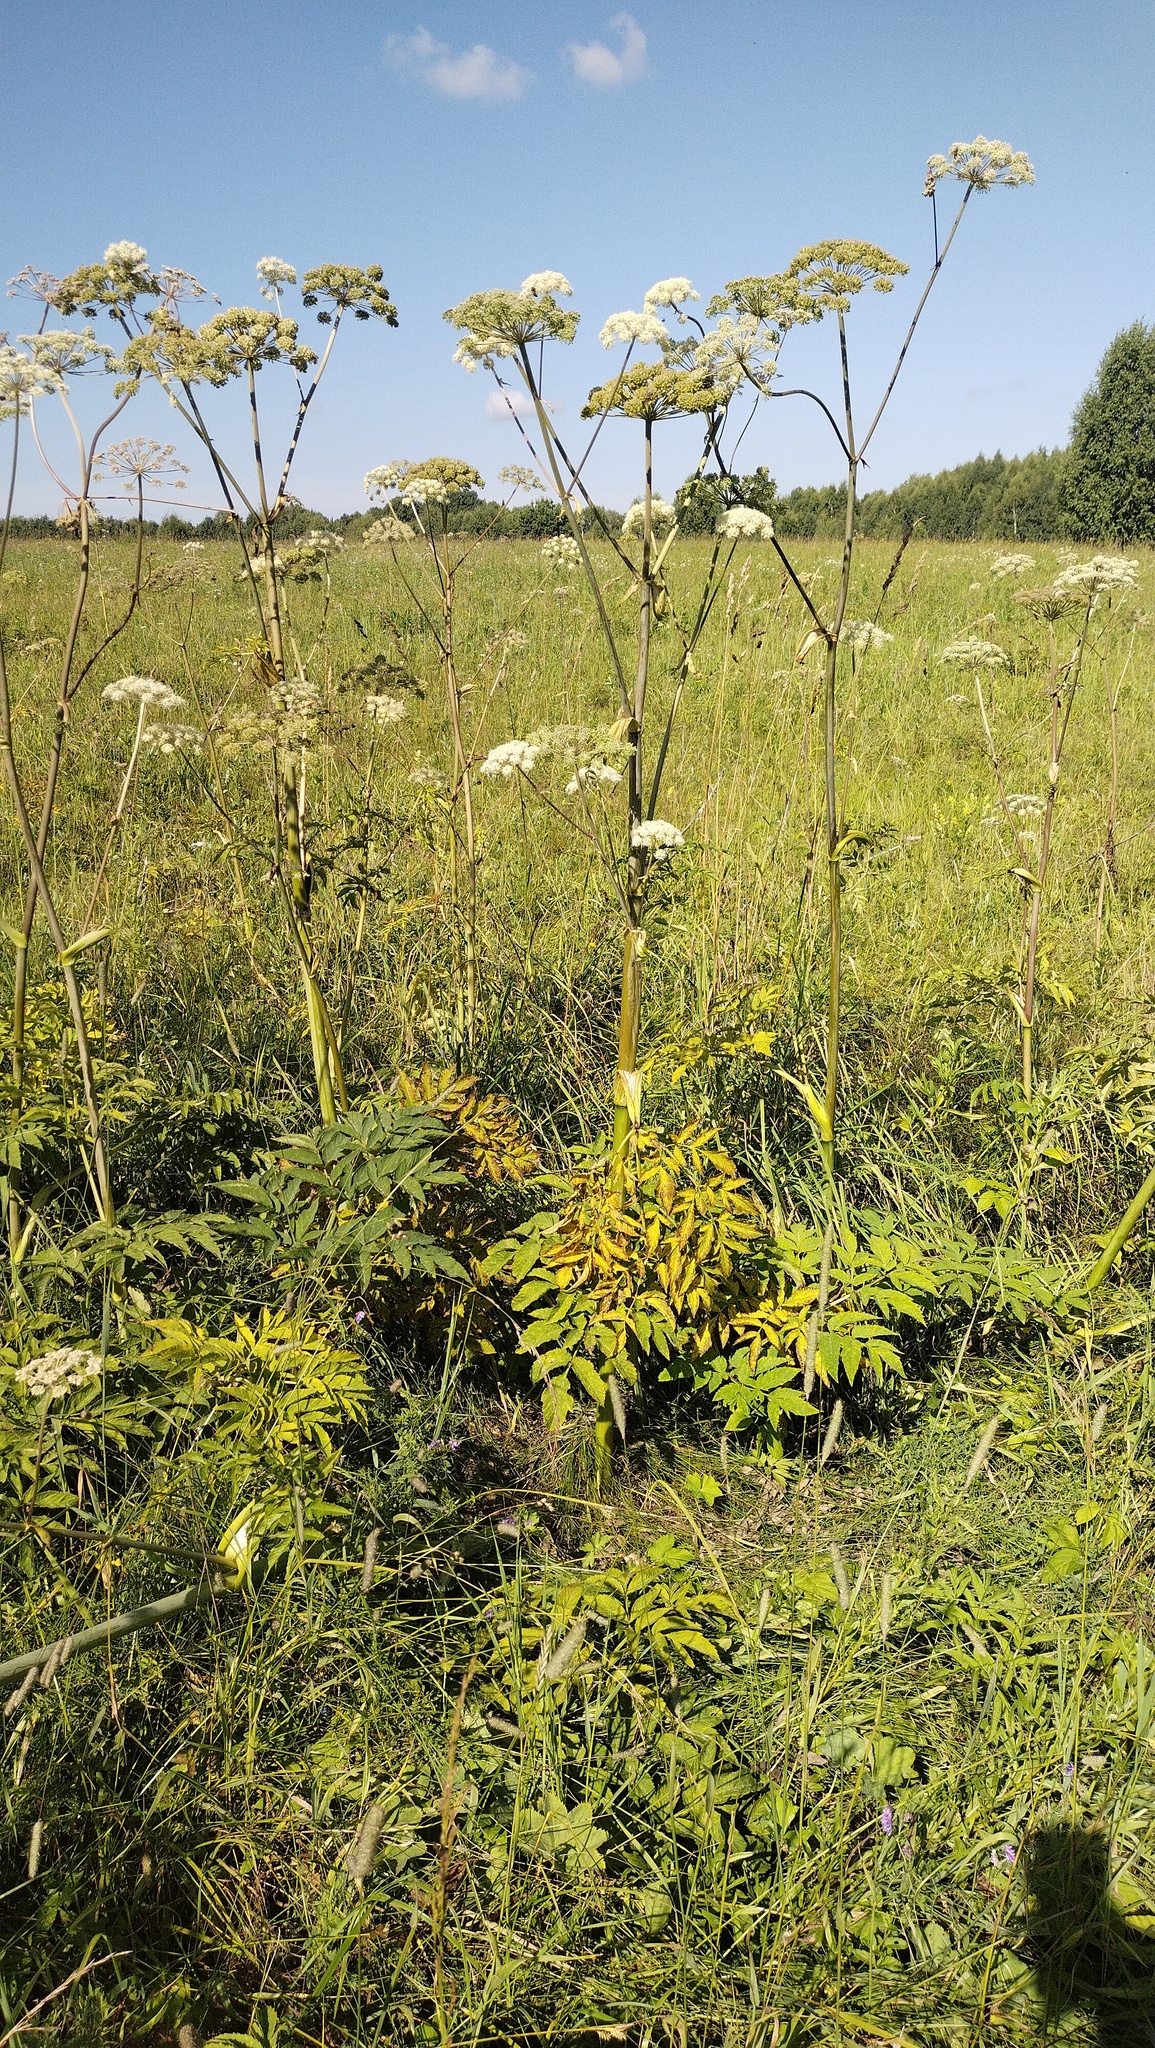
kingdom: Plantae
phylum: Tracheophyta
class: Magnoliopsida
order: Apiales
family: Apiaceae
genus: Angelica
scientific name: Angelica sylvestris
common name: Wild angelica
